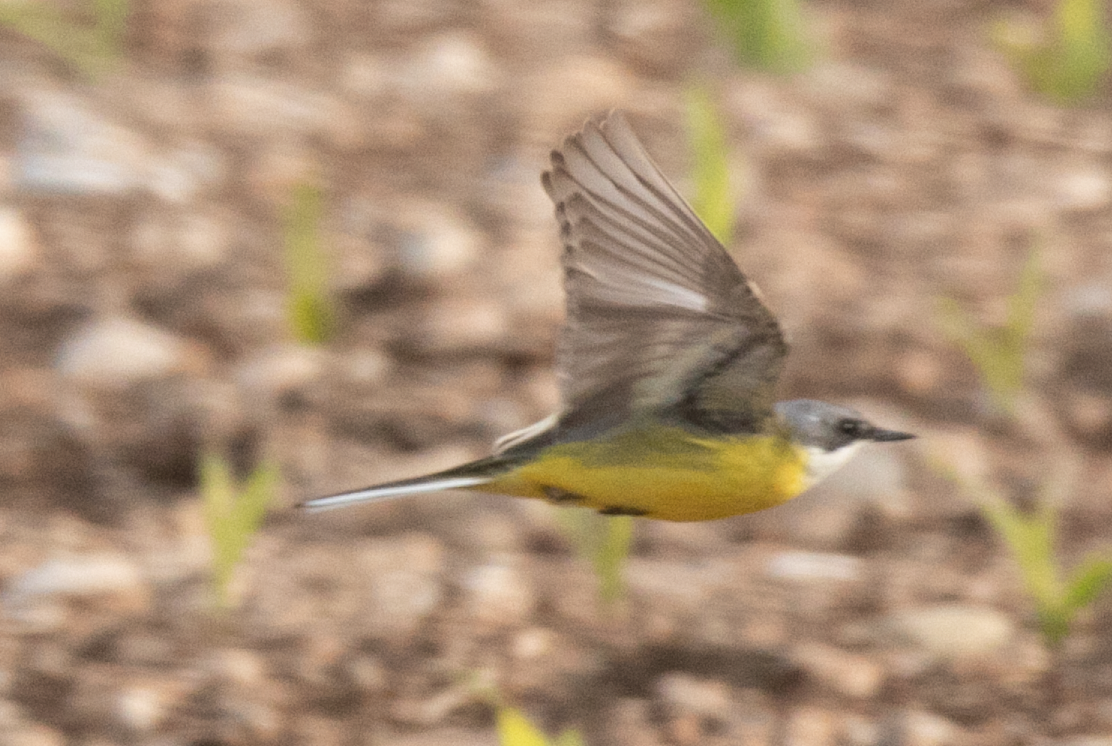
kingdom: Animalia
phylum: Chordata
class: Aves
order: Passeriformes
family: Motacillidae
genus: Motacilla
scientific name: Motacilla flava
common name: Western yellow wagtail
